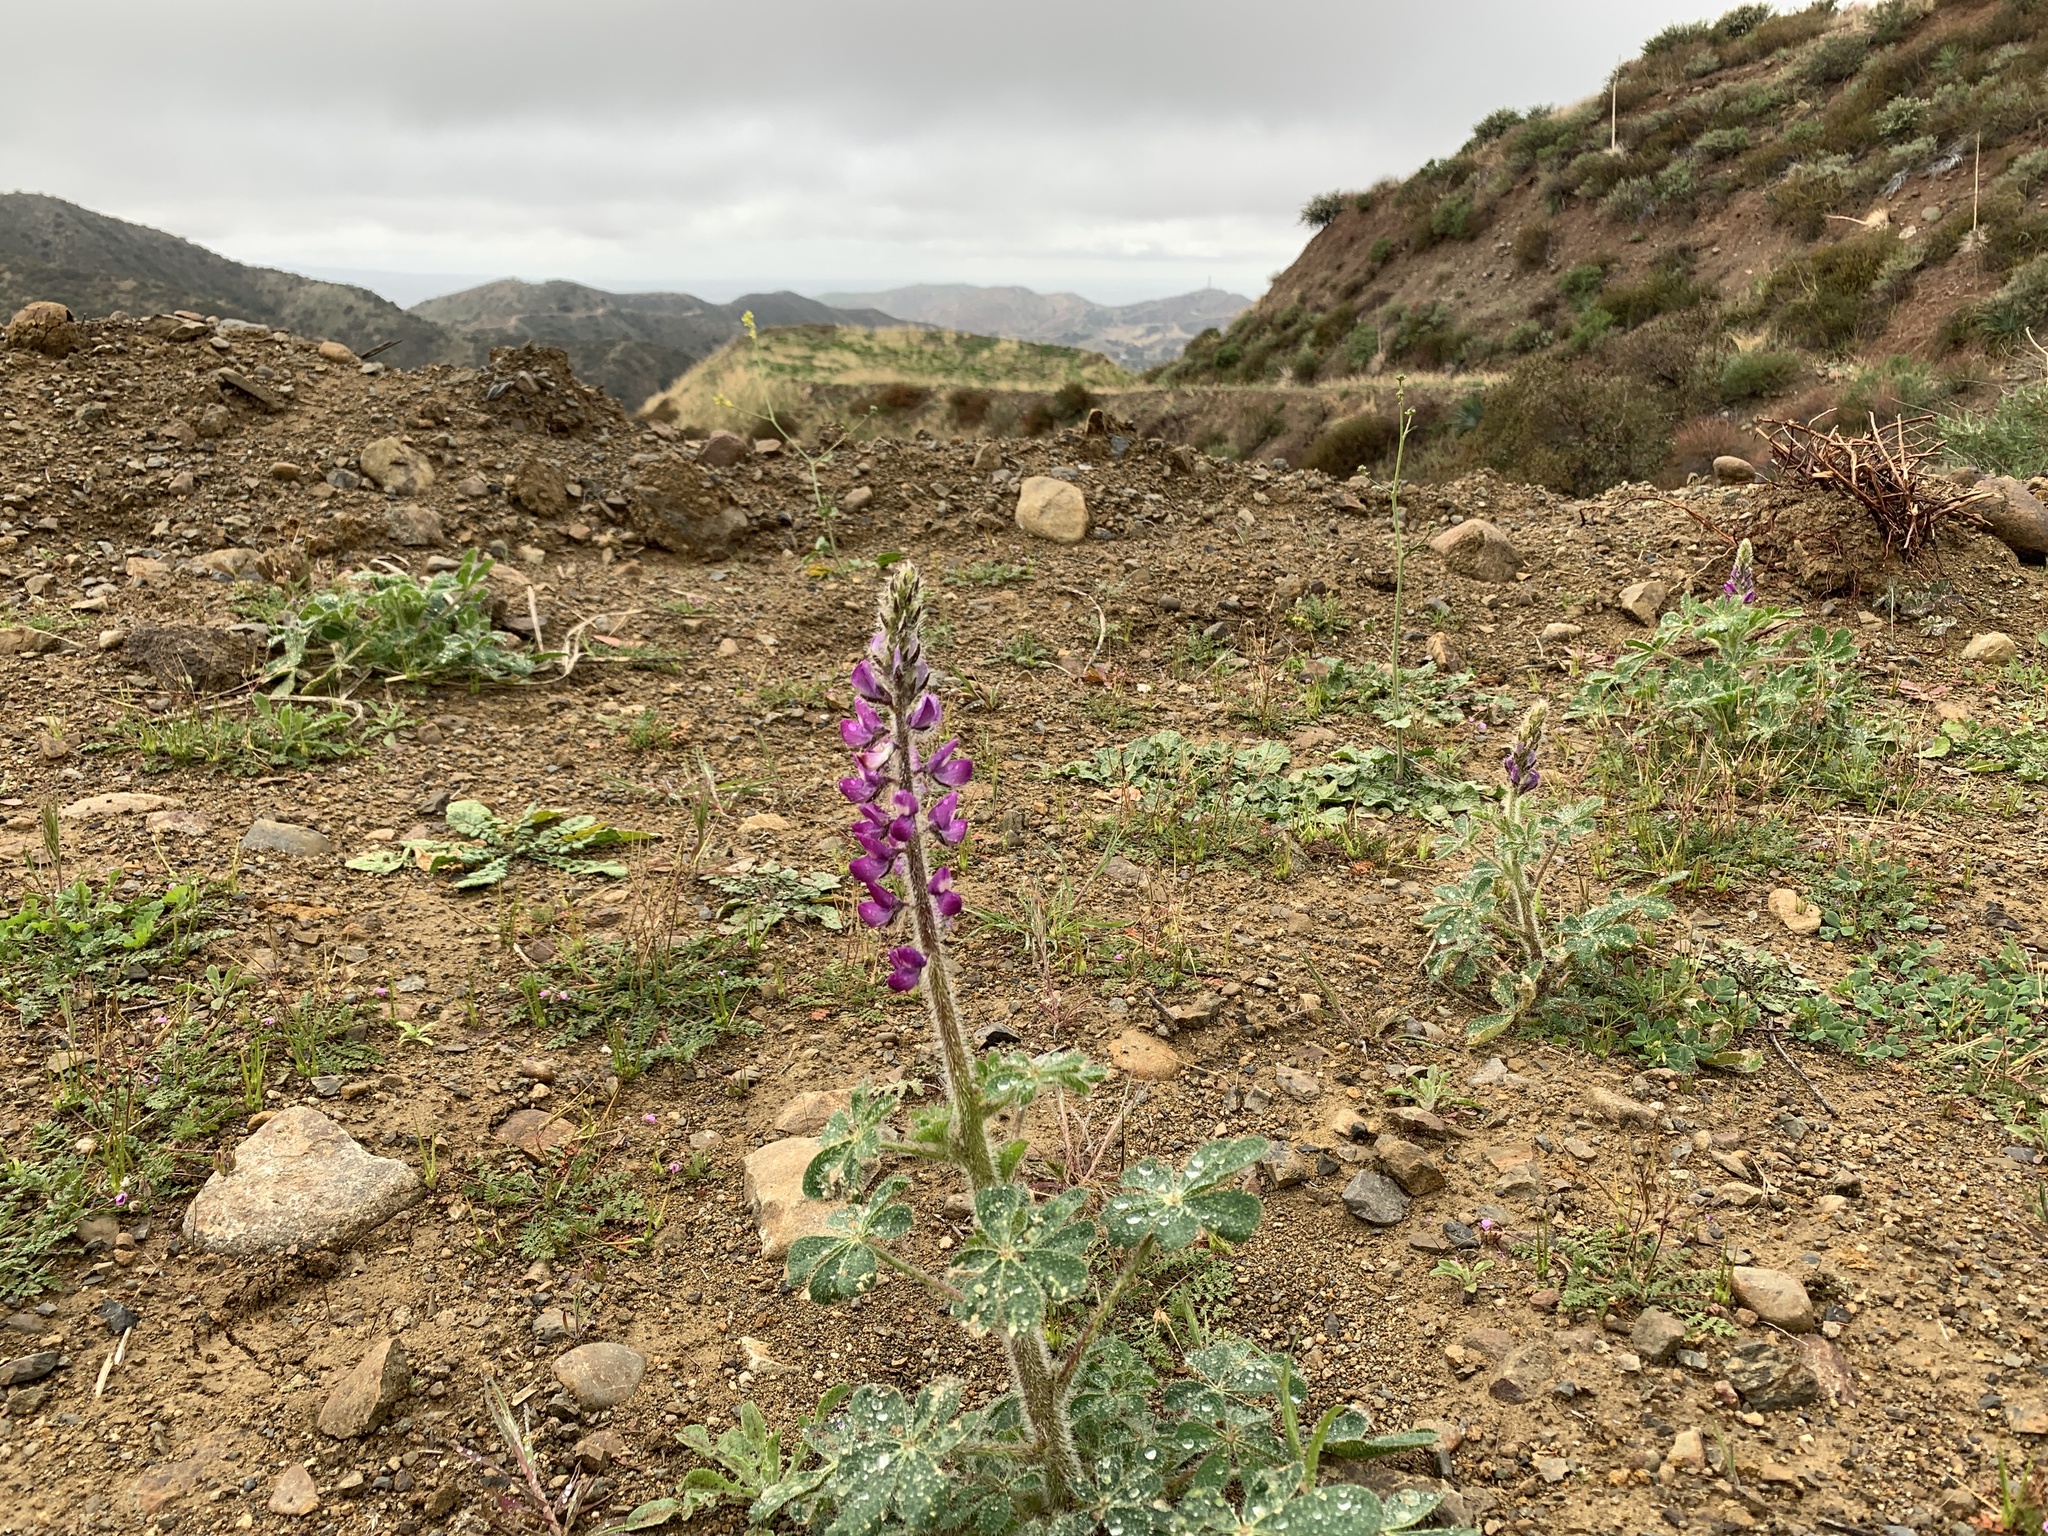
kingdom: Plantae
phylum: Tracheophyta
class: Magnoliopsida
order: Fabales
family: Fabaceae
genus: Lupinus
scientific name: Lupinus hirsutissimus
